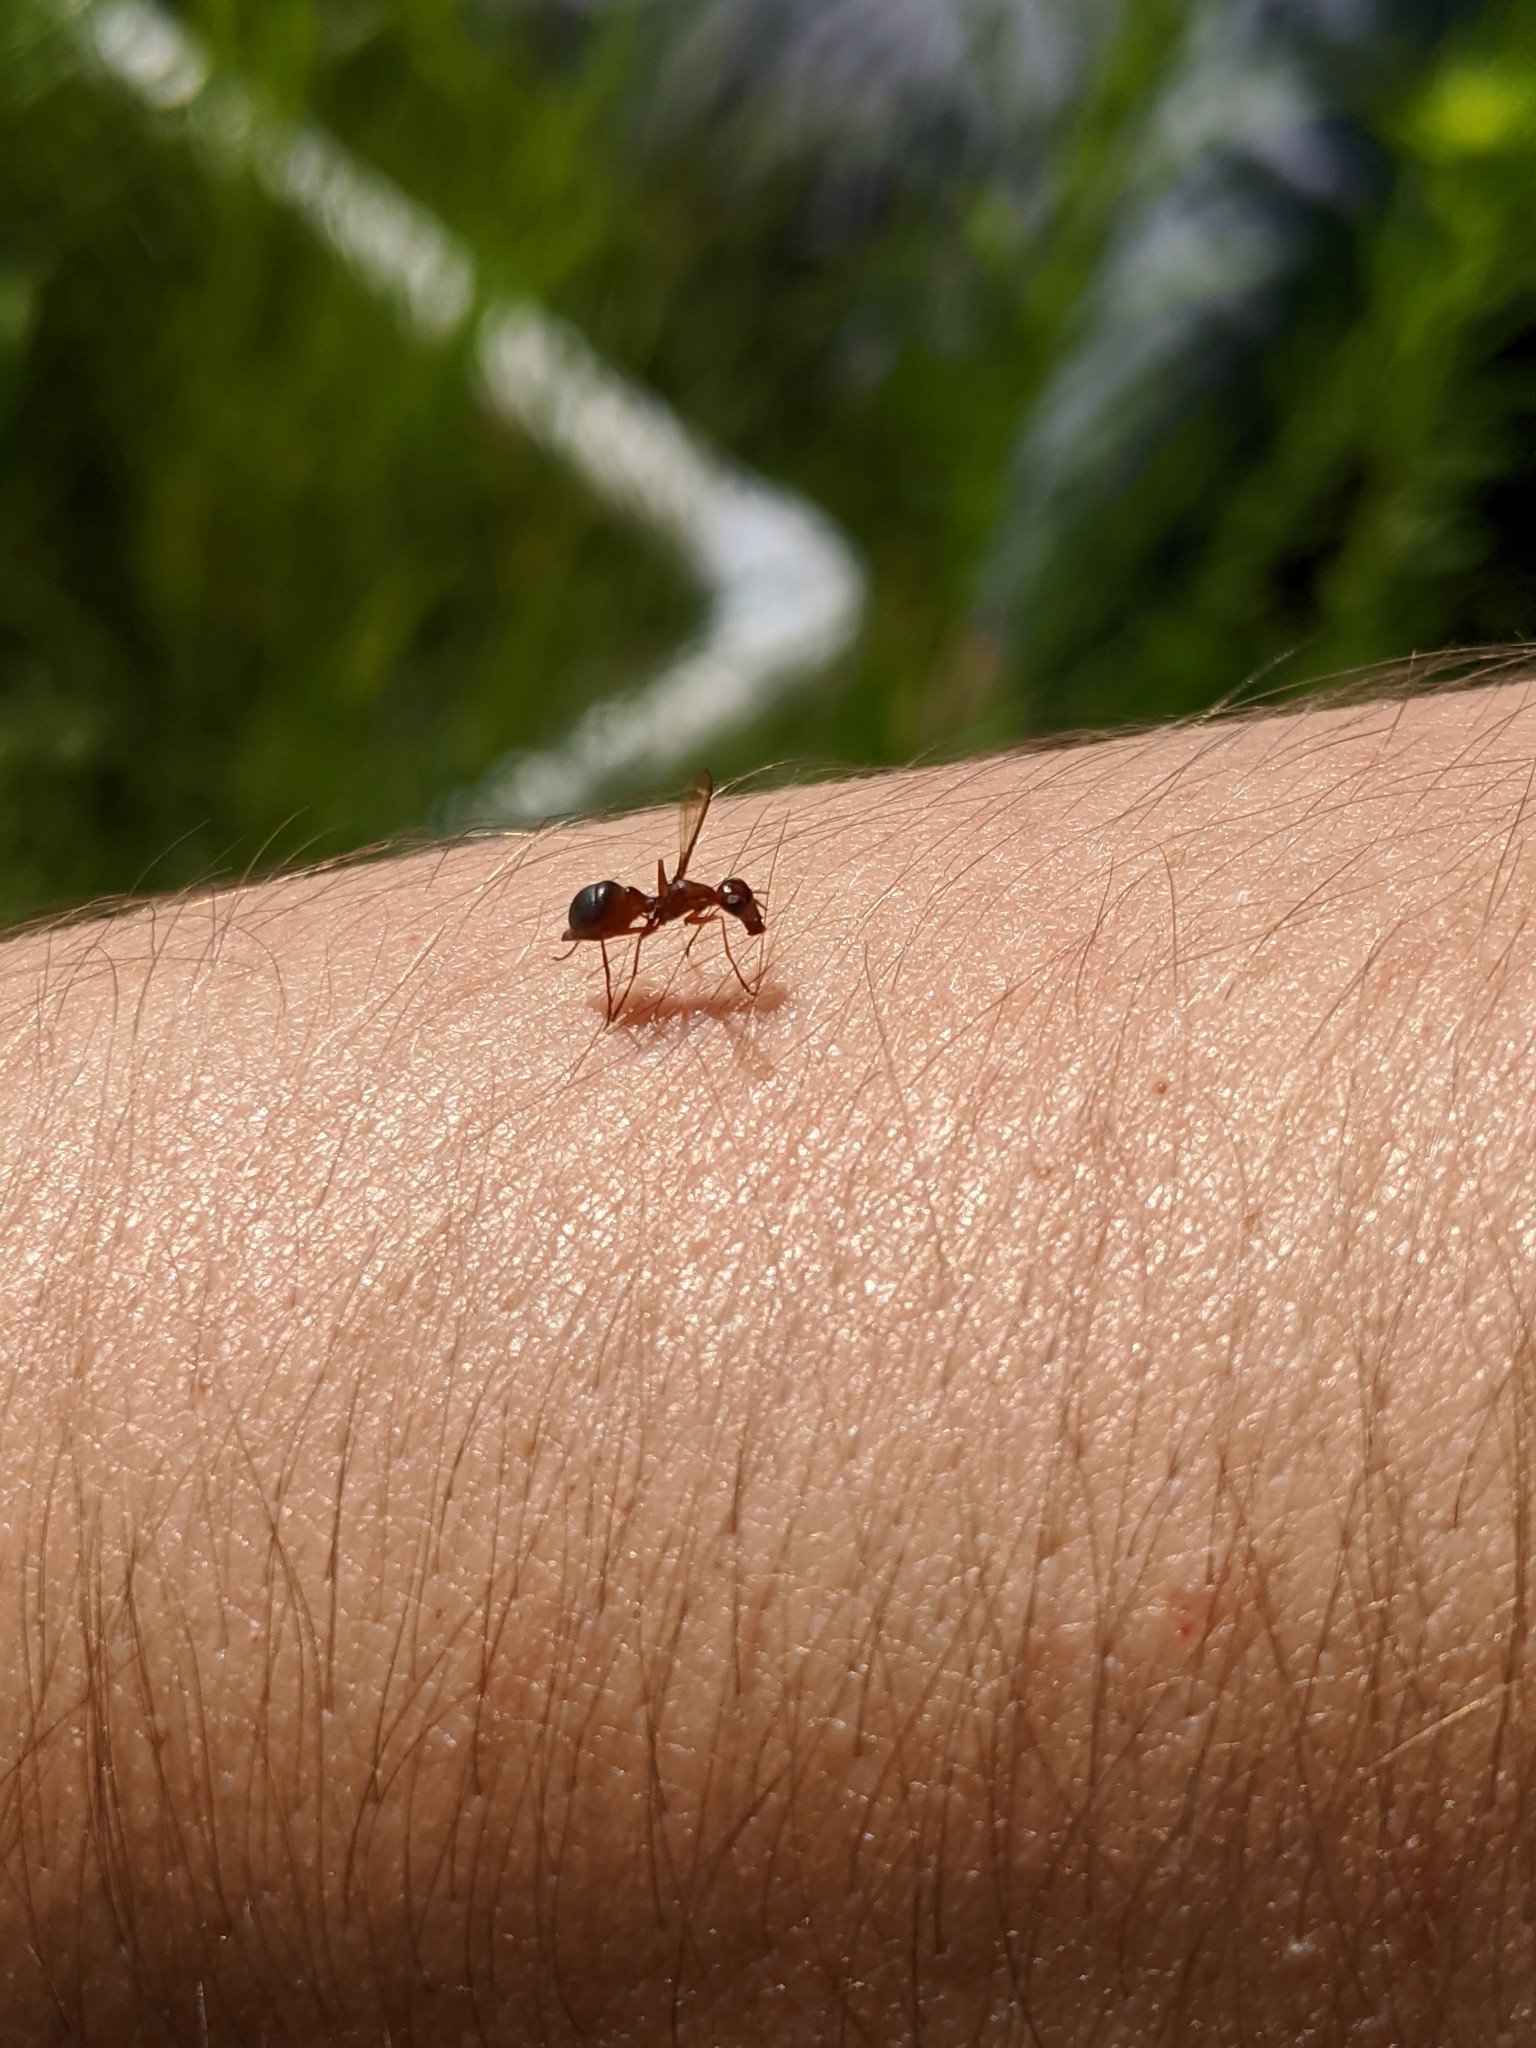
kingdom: Animalia
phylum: Arthropoda
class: Insecta
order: Diptera
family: Ulidiidae
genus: Myiomyrmica
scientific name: Myiomyrmica fenestrata
